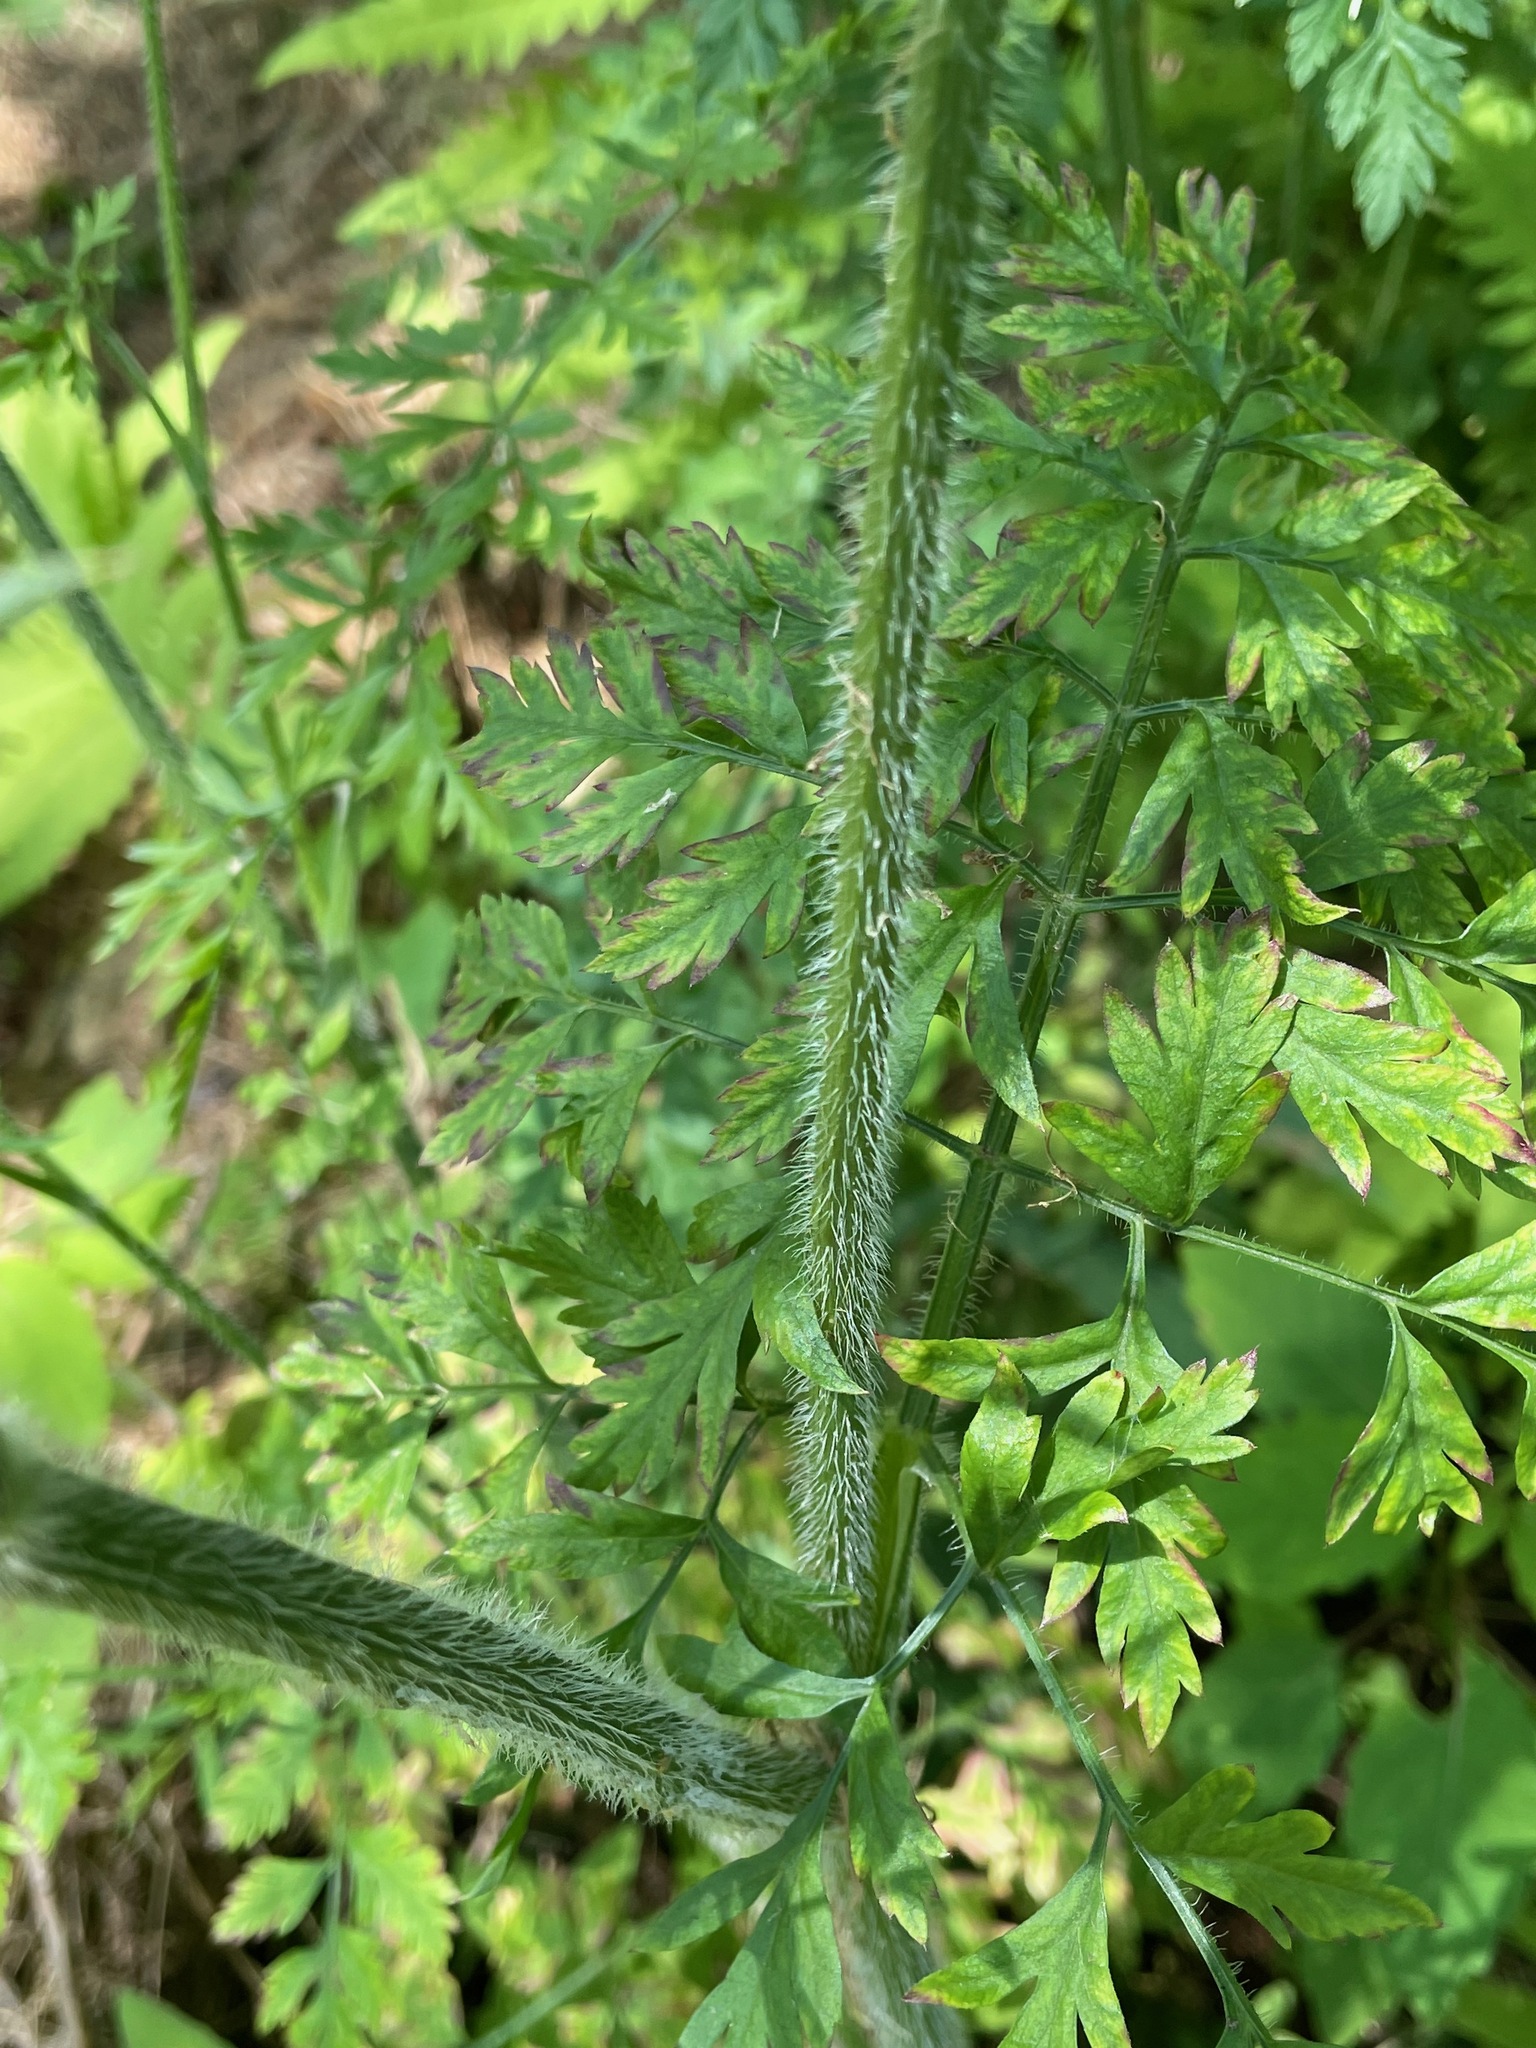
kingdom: Plantae
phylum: Tracheophyta
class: Magnoliopsida
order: Apiales
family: Apiaceae
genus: Daucus
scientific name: Daucus carota
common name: Wild carrot
